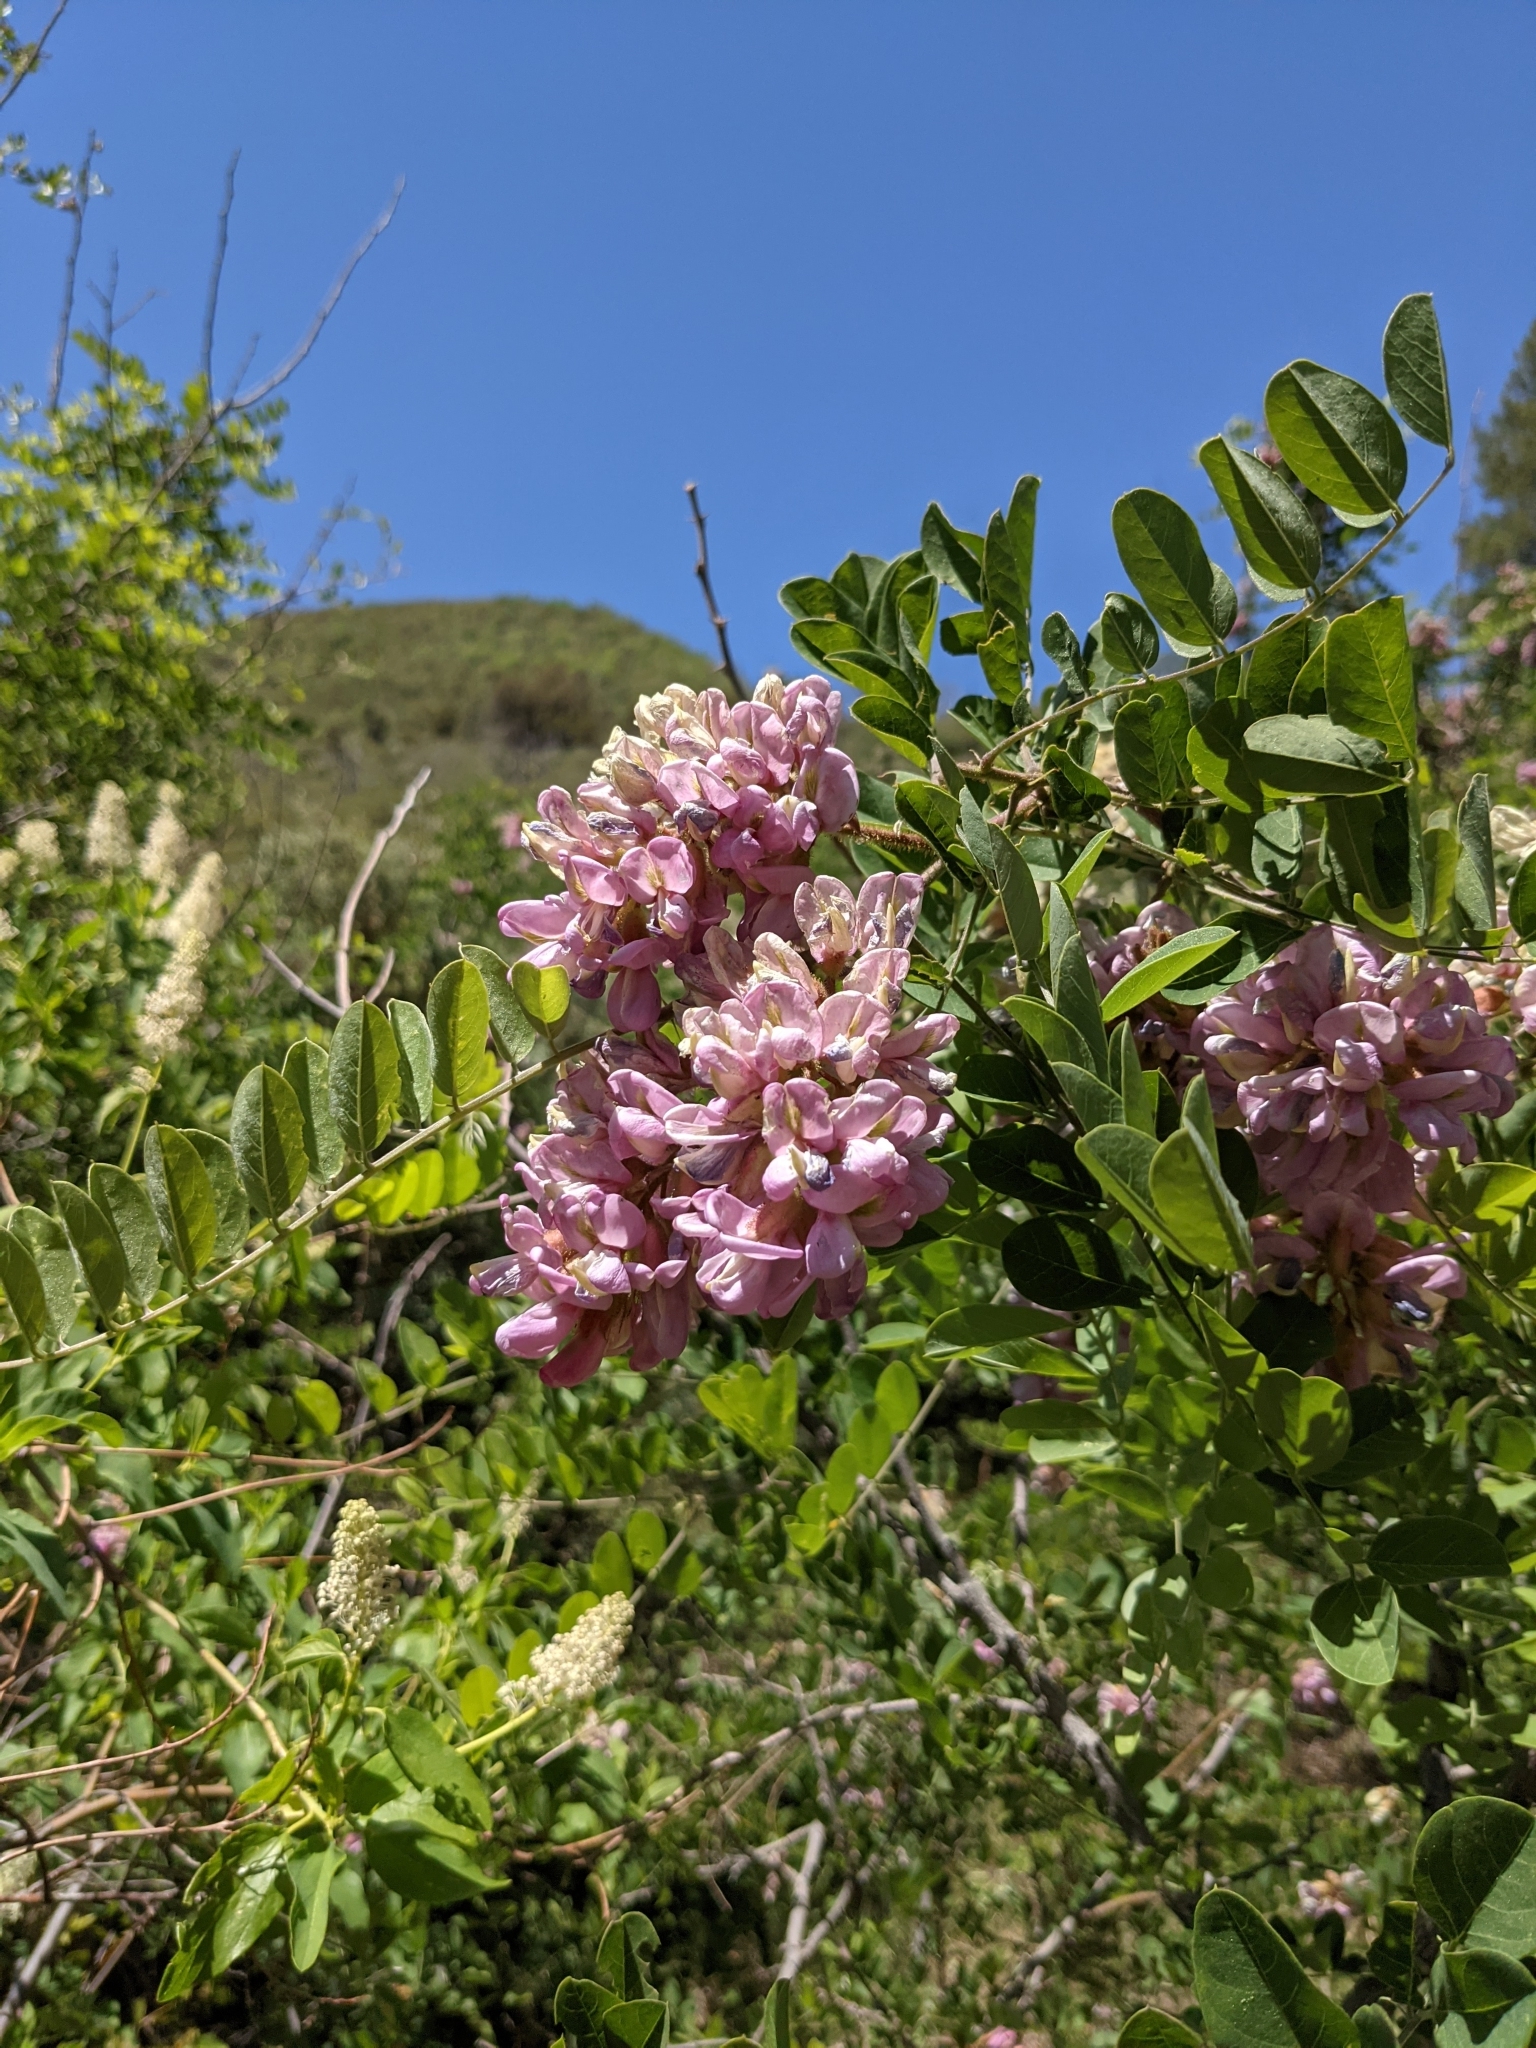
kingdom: Plantae
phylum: Tracheophyta
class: Magnoliopsida
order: Fabales
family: Fabaceae
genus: Robinia
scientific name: Robinia neomexicana
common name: New mexico locust
